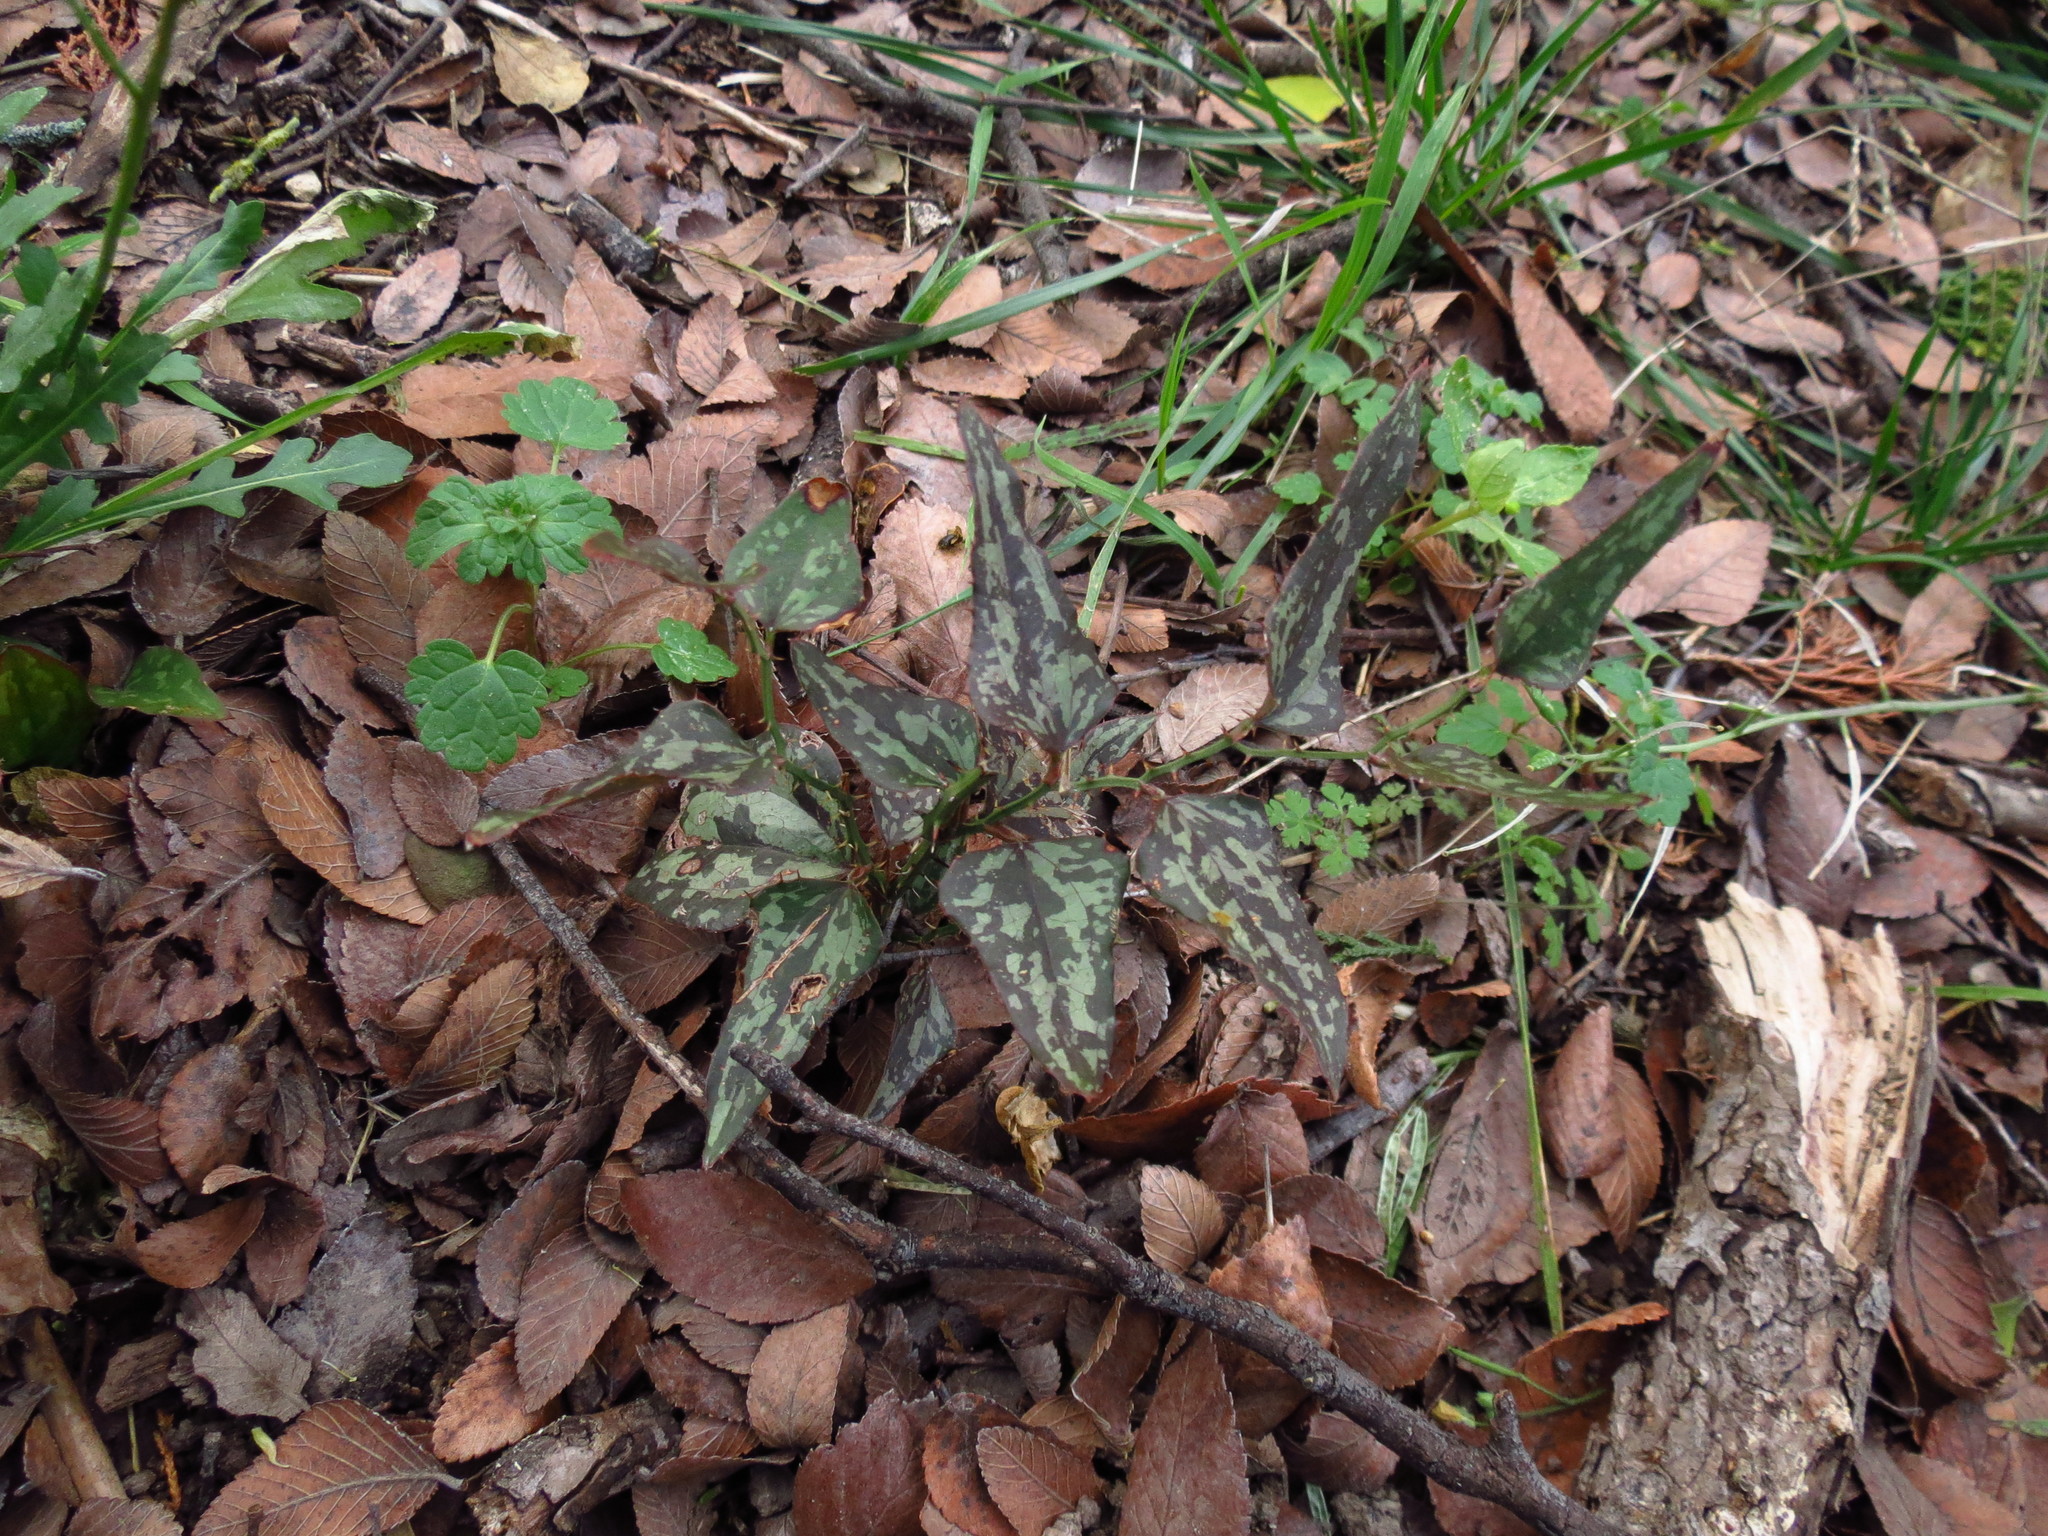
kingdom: Plantae
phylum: Tracheophyta
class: Liliopsida
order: Liliales
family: Smilacaceae
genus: Smilax
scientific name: Smilax bona-nox
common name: Catbrier
